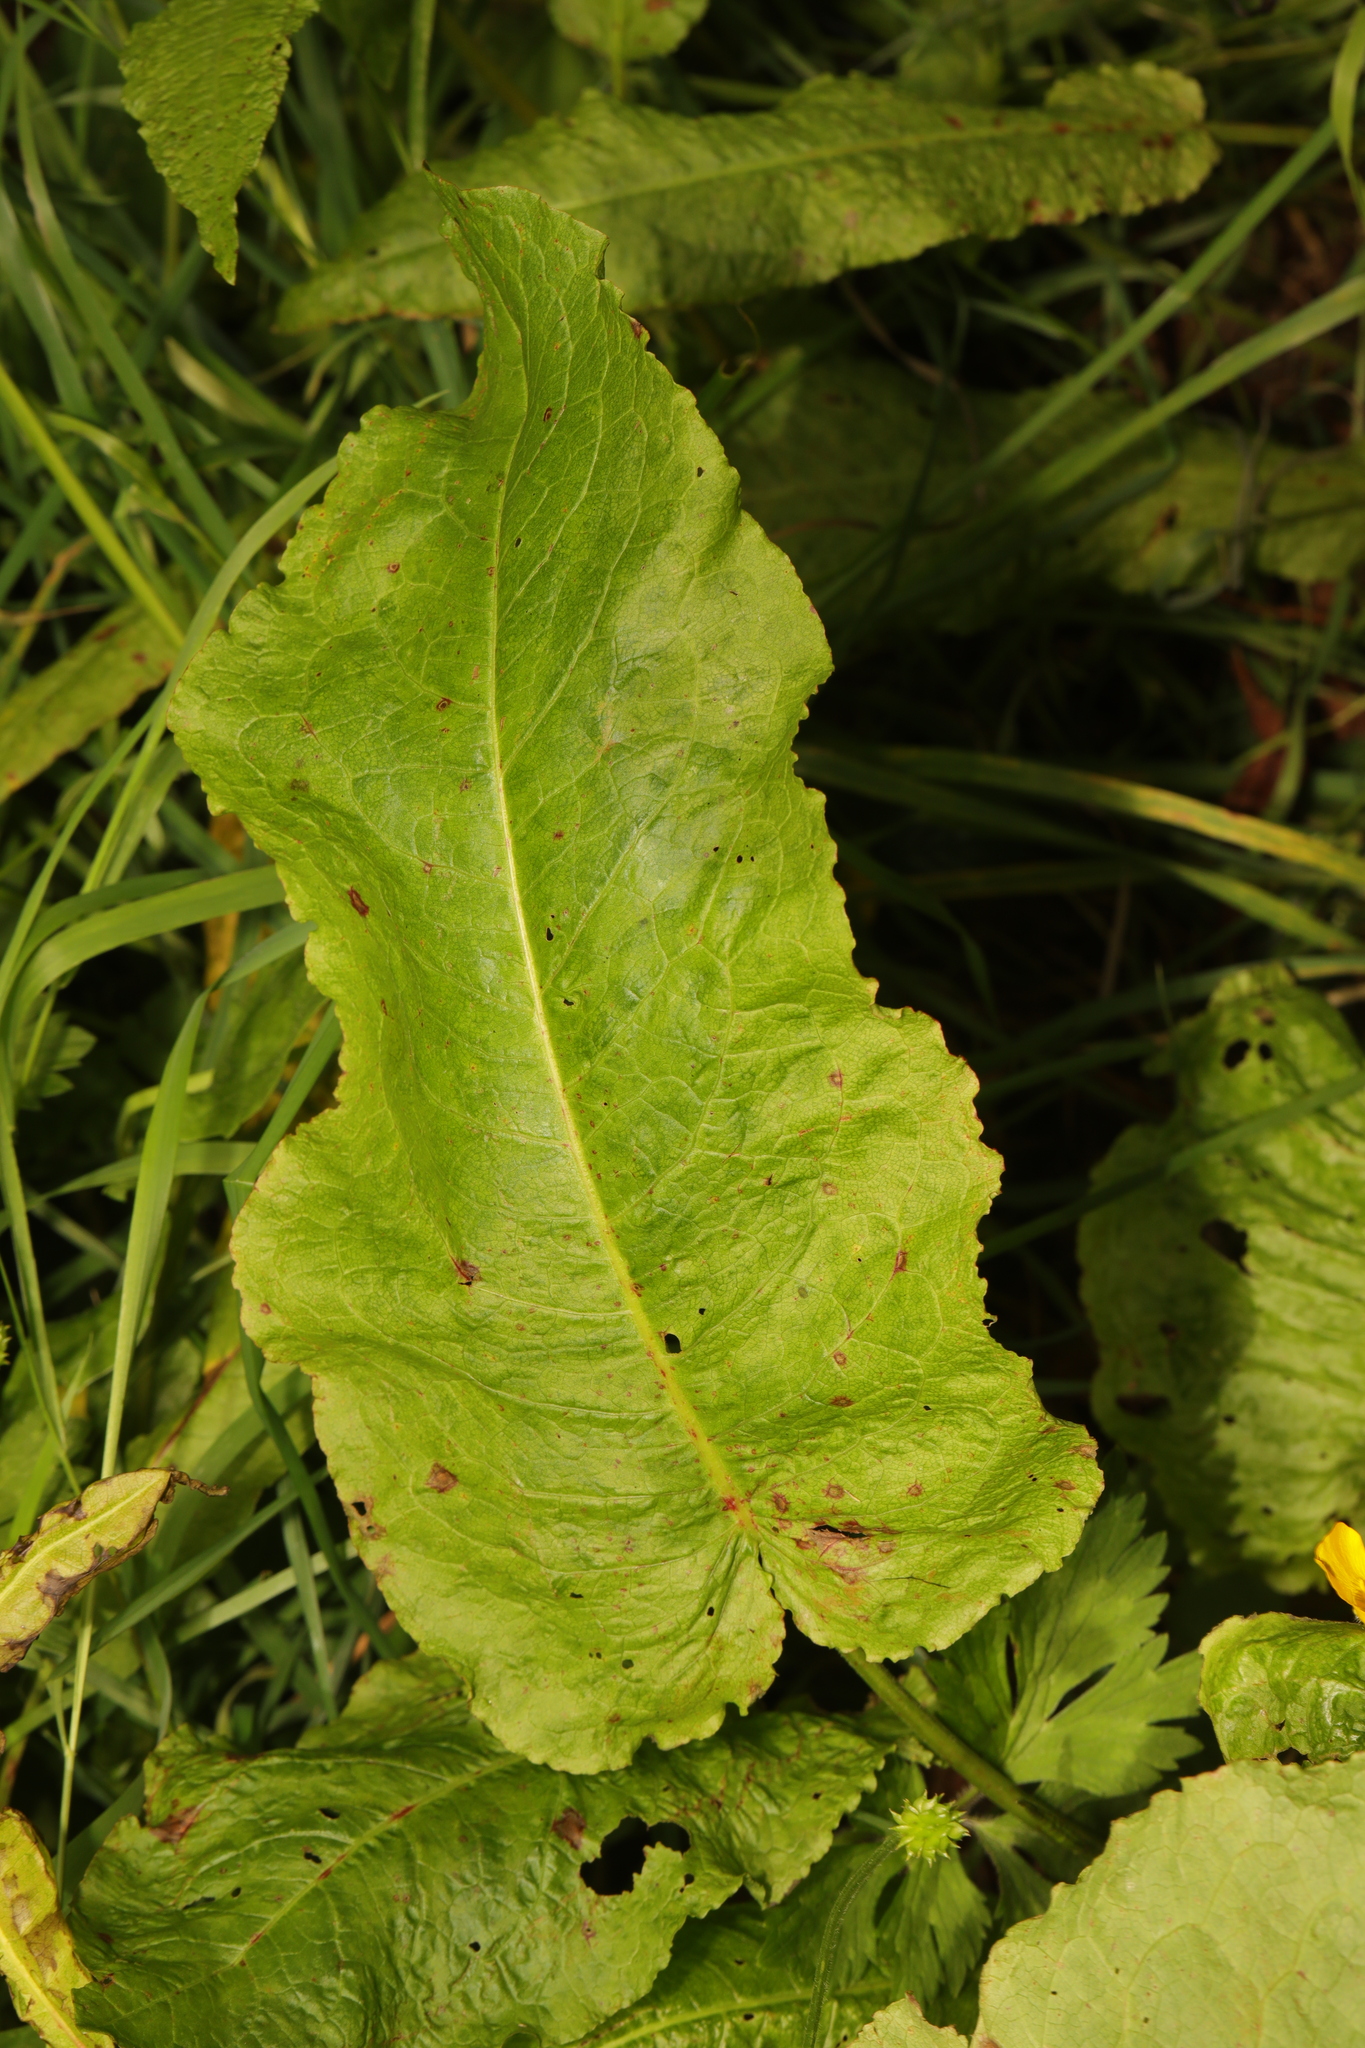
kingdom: Plantae
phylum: Tracheophyta
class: Magnoliopsida
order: Caryophyllales
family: Polygonaceae
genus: Rumex
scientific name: Rumex obtusifolius
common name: Bitter dock
